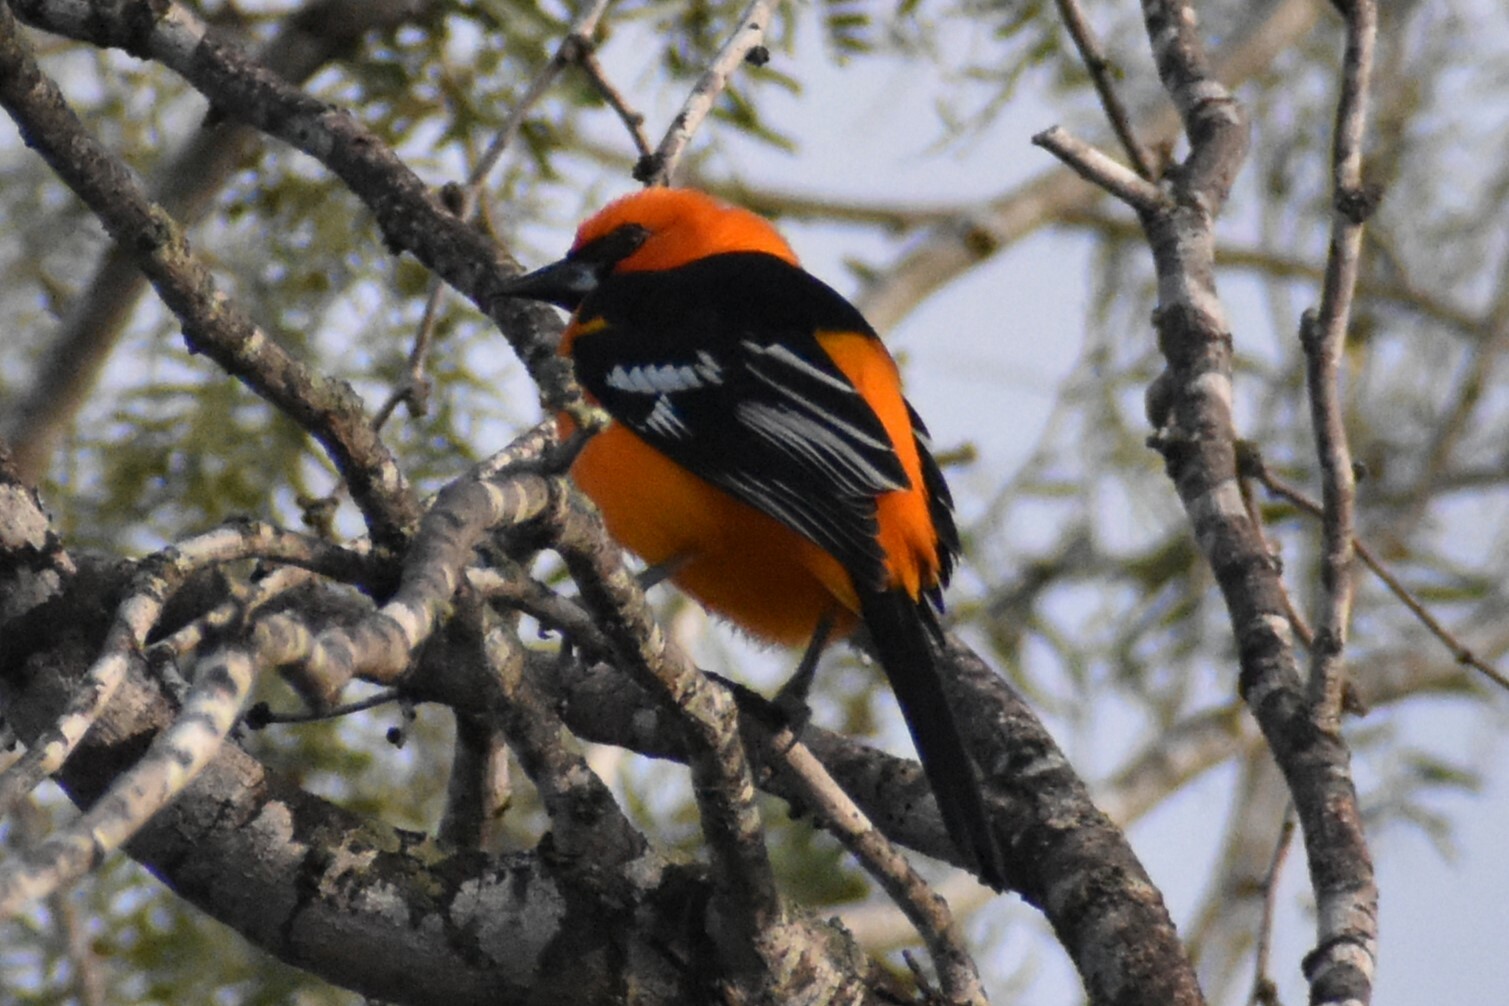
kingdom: Animalia
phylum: Chordata
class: Aves
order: Passeriformes
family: Icteridae
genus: Icterus
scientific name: Icterus gularis
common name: Altamira oriole
